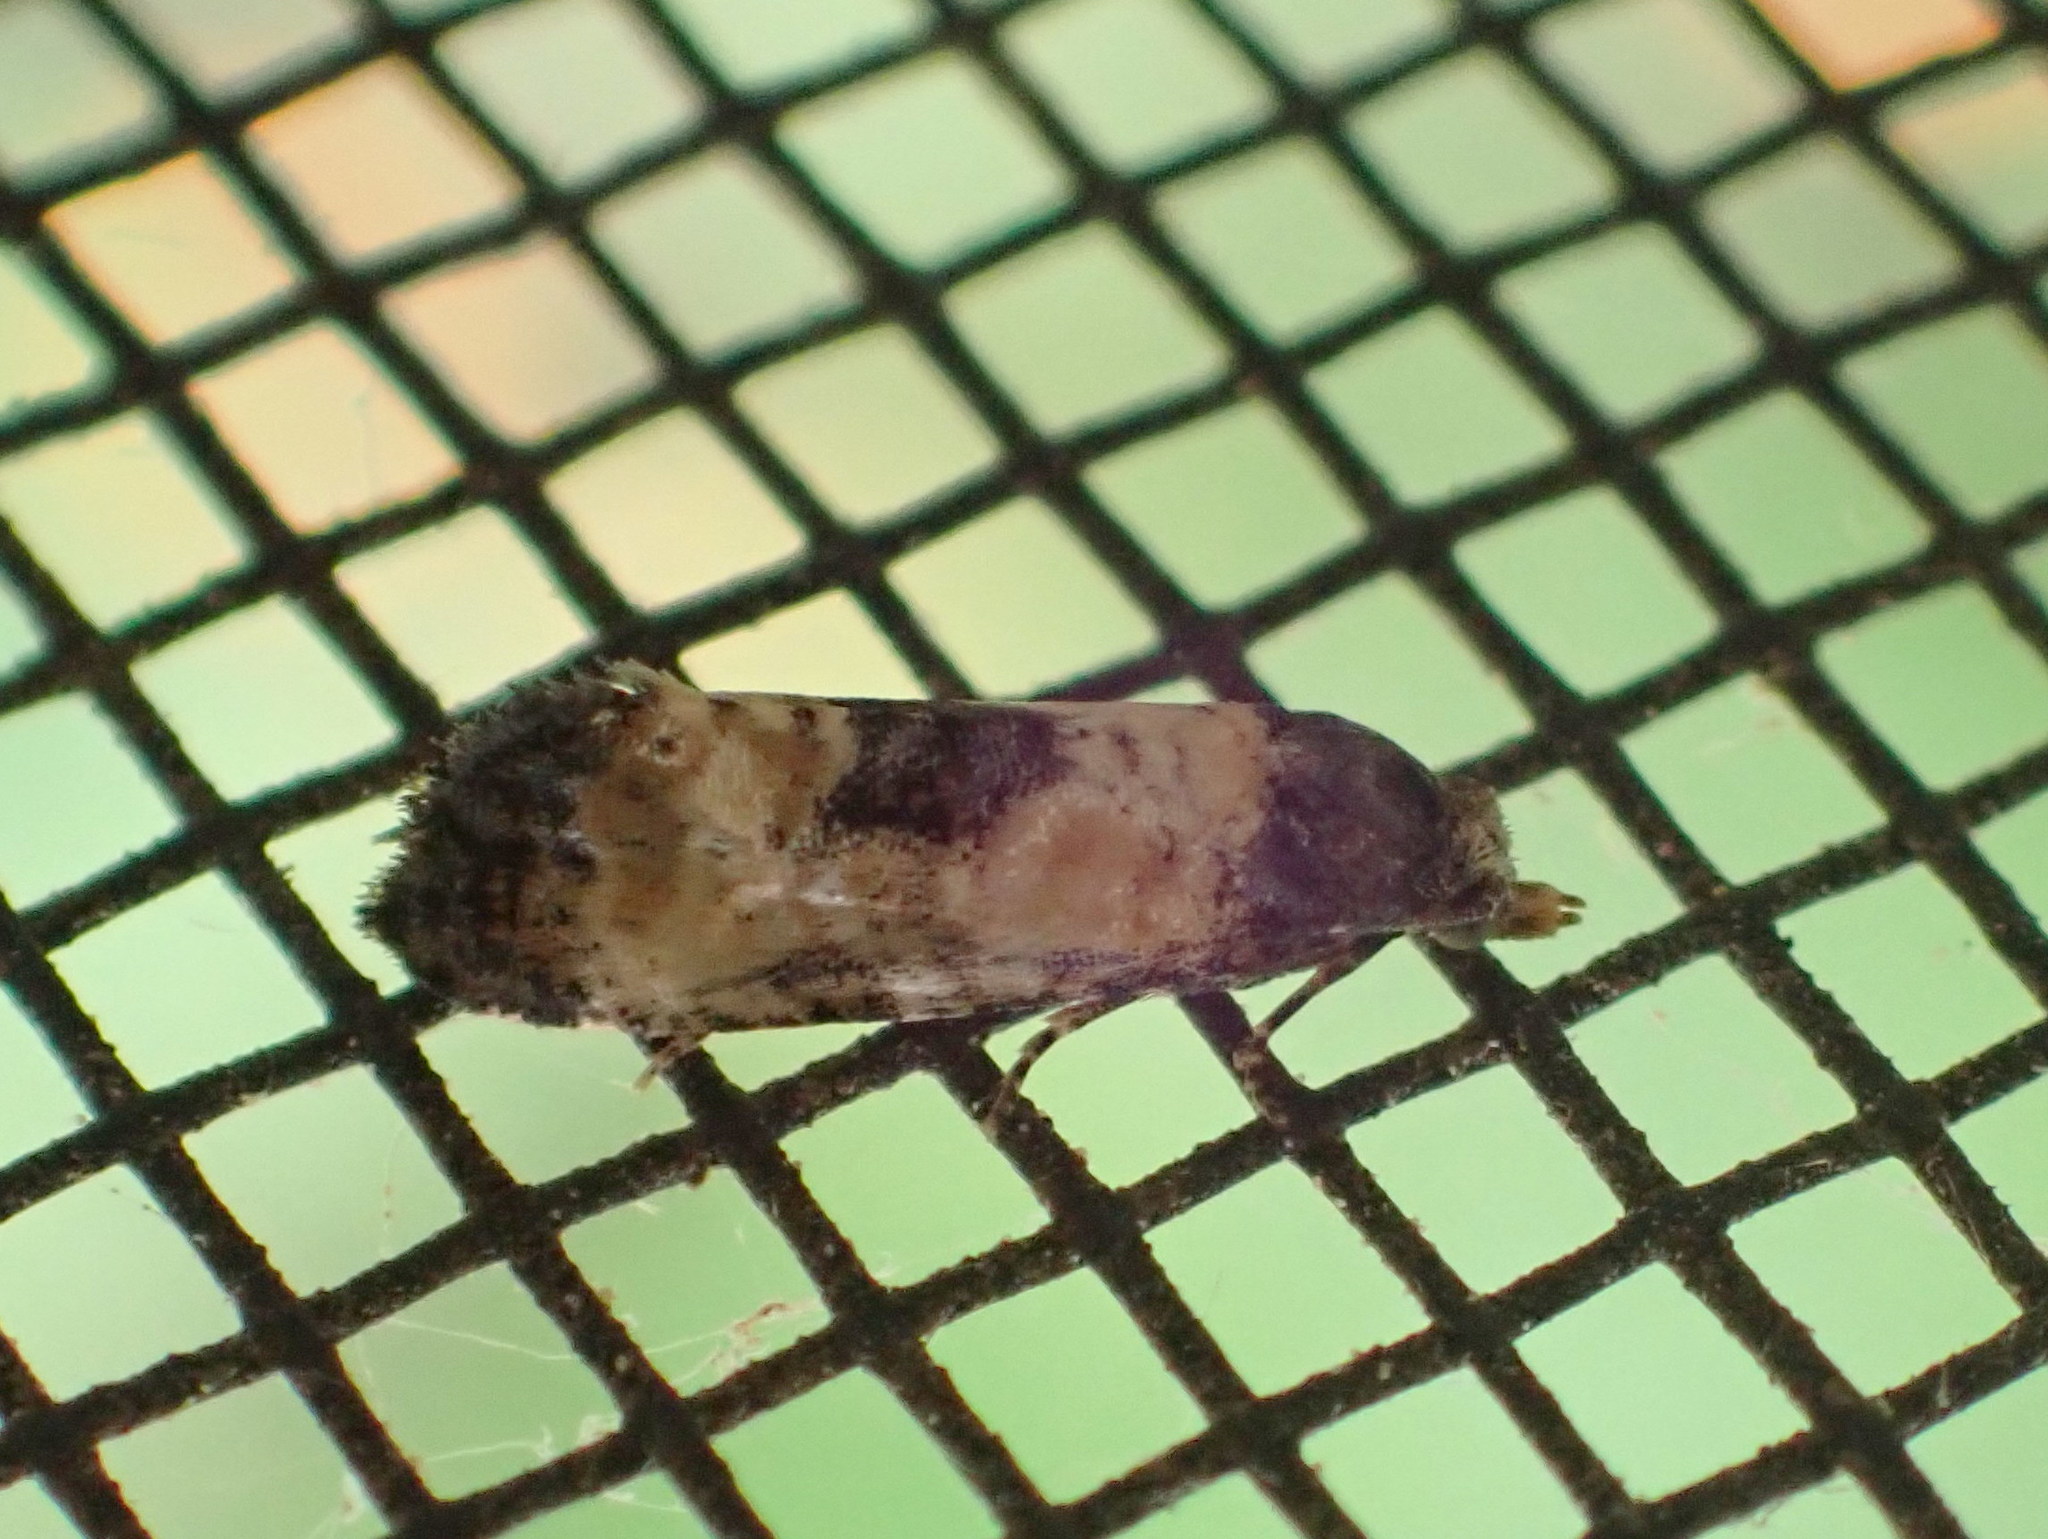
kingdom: Animalia
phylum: Arthropoda
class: Insecta
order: Lepidoptera
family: Tortricidae
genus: Cochylis
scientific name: Cochylis dubitana
